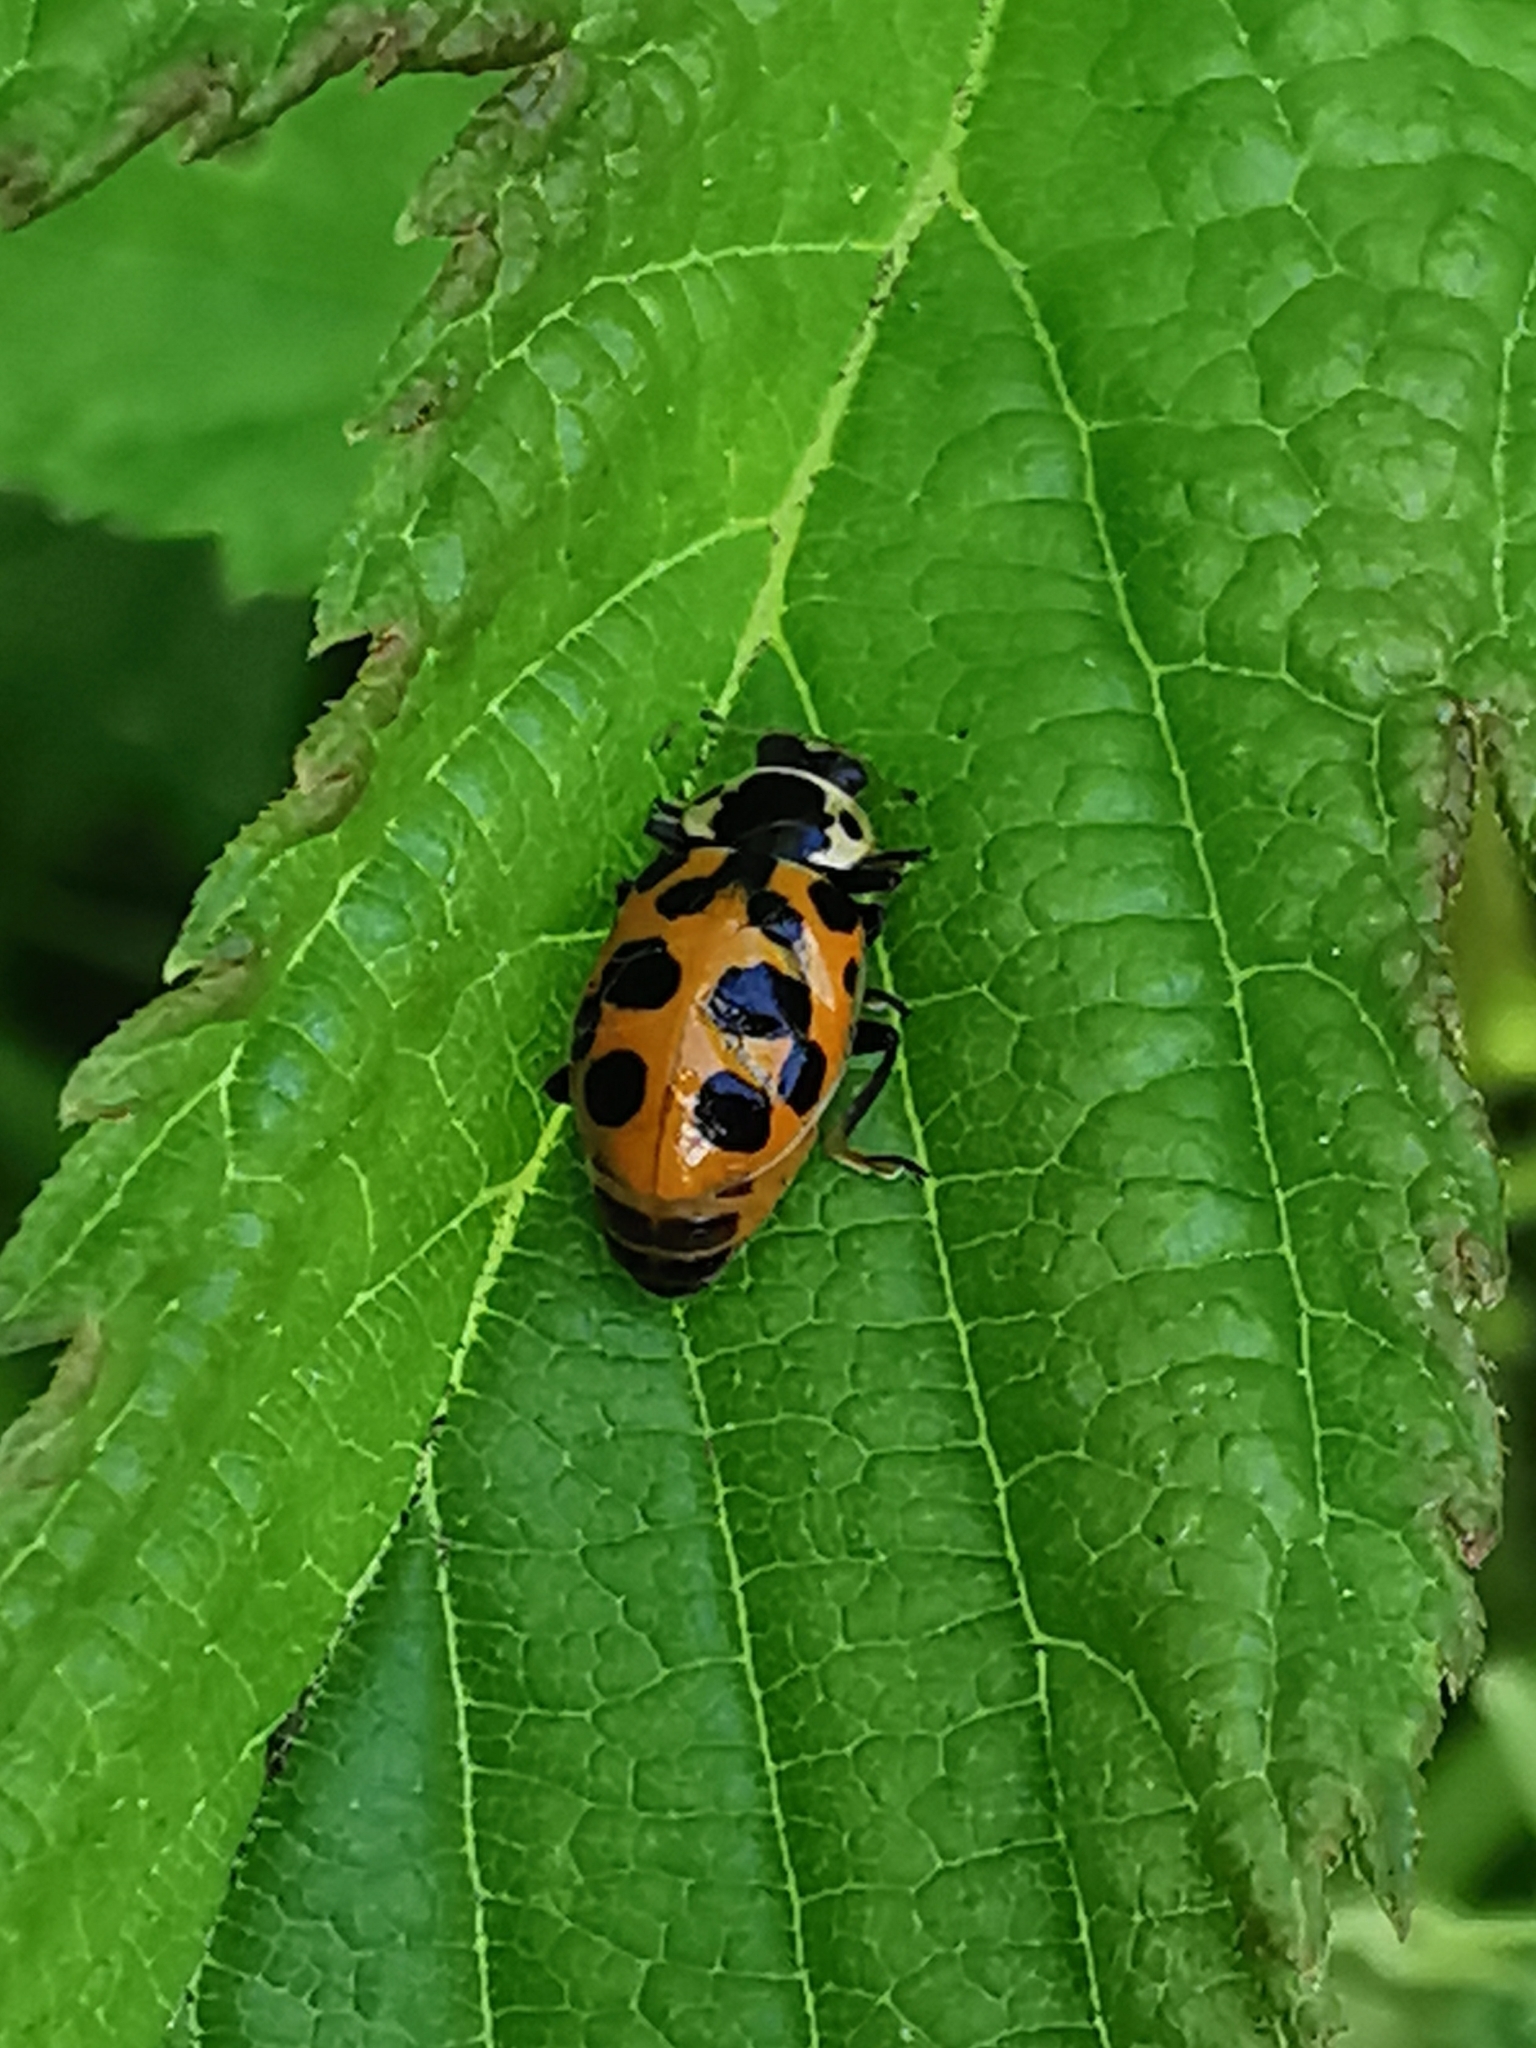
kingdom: Animalia
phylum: Arthropoda
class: Insecta
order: Coleoptera
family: Coccinellidae
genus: Hippodamia
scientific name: Hippodamia tredecimpunctata
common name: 13-spot ladybird
